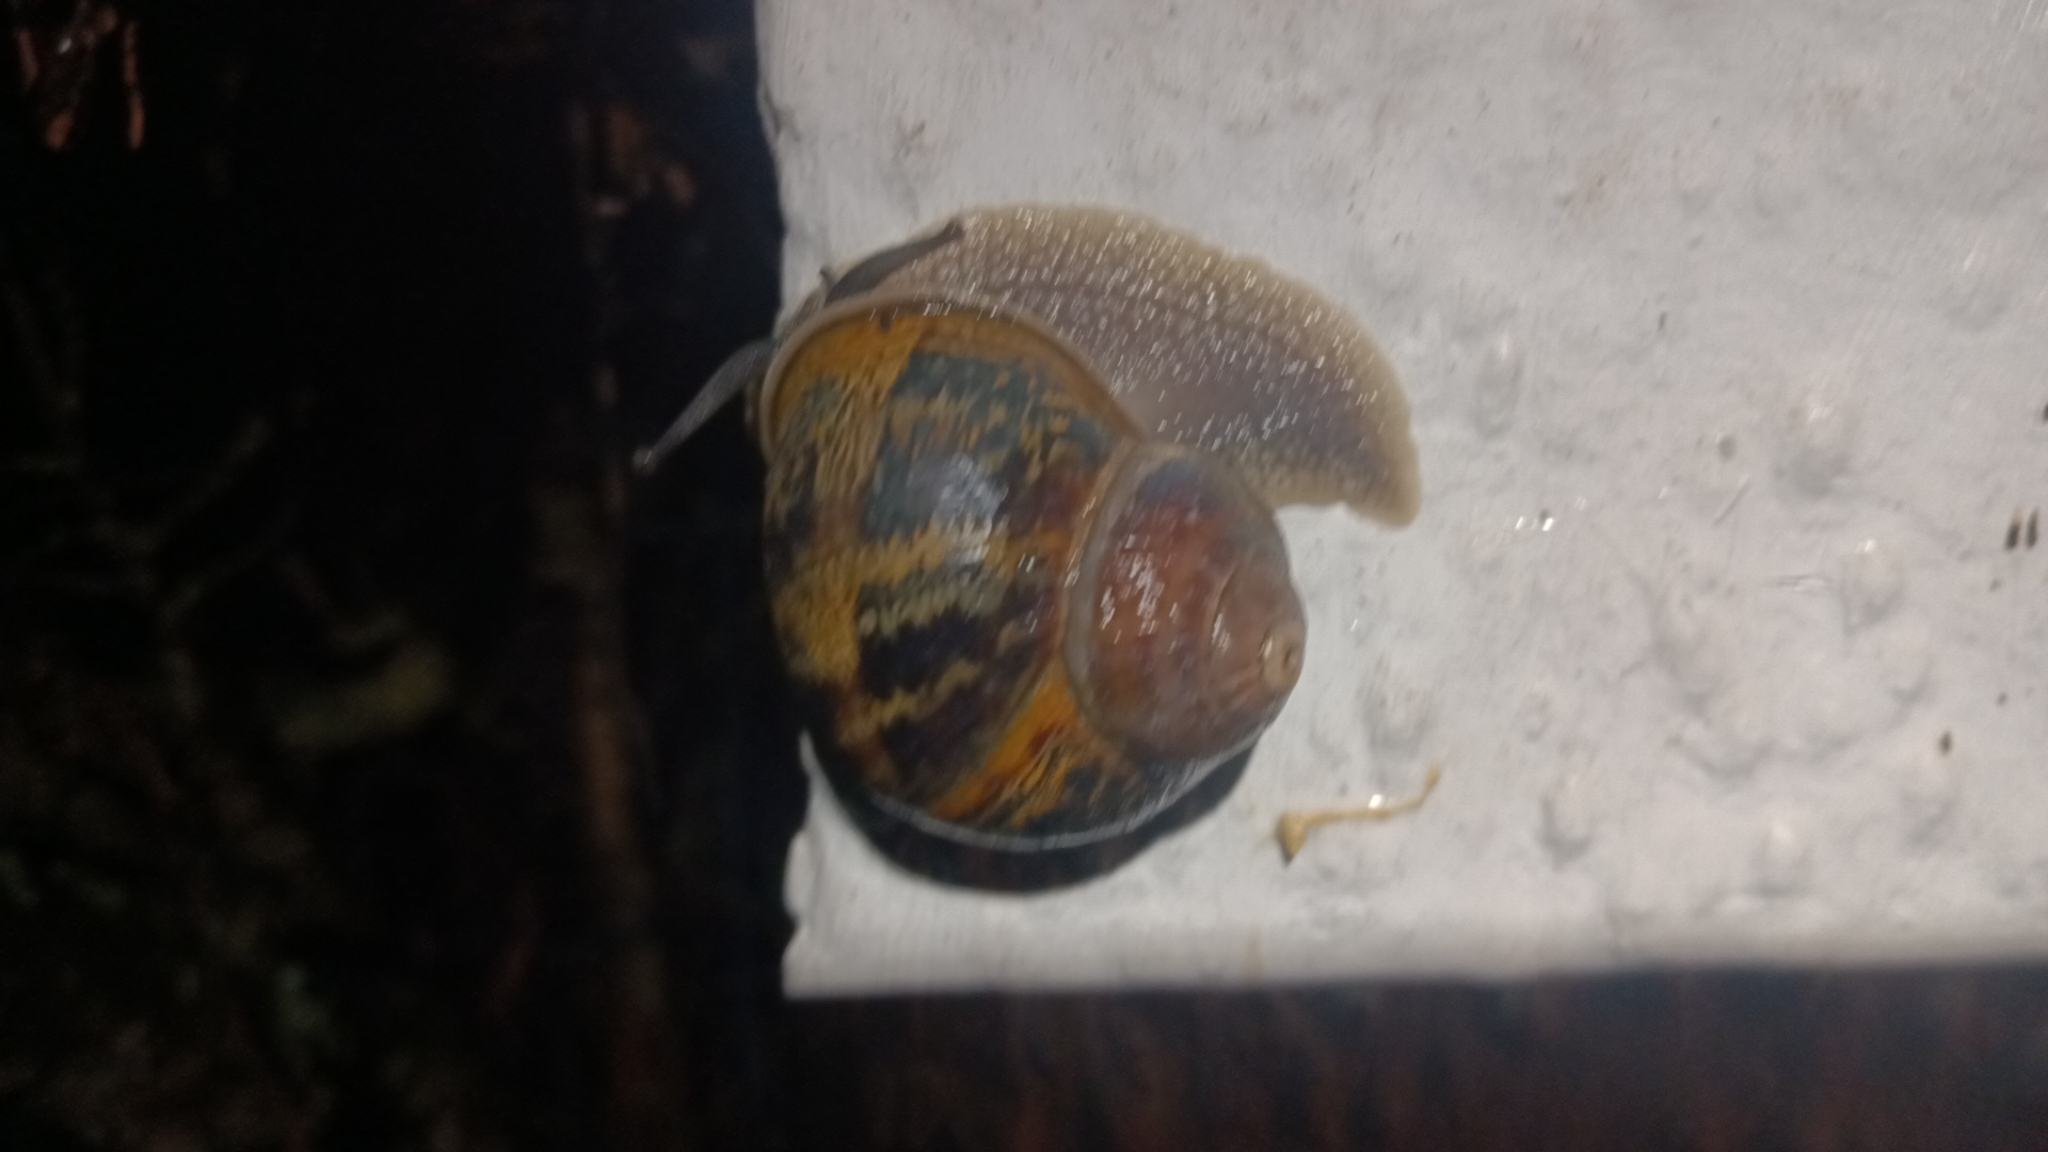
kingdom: Animalia
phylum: Mollusca
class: Gastropoda
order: Stylommatophora
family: Helicidae
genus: Cornu
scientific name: Cornu aspersum
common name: Brown garden snail
